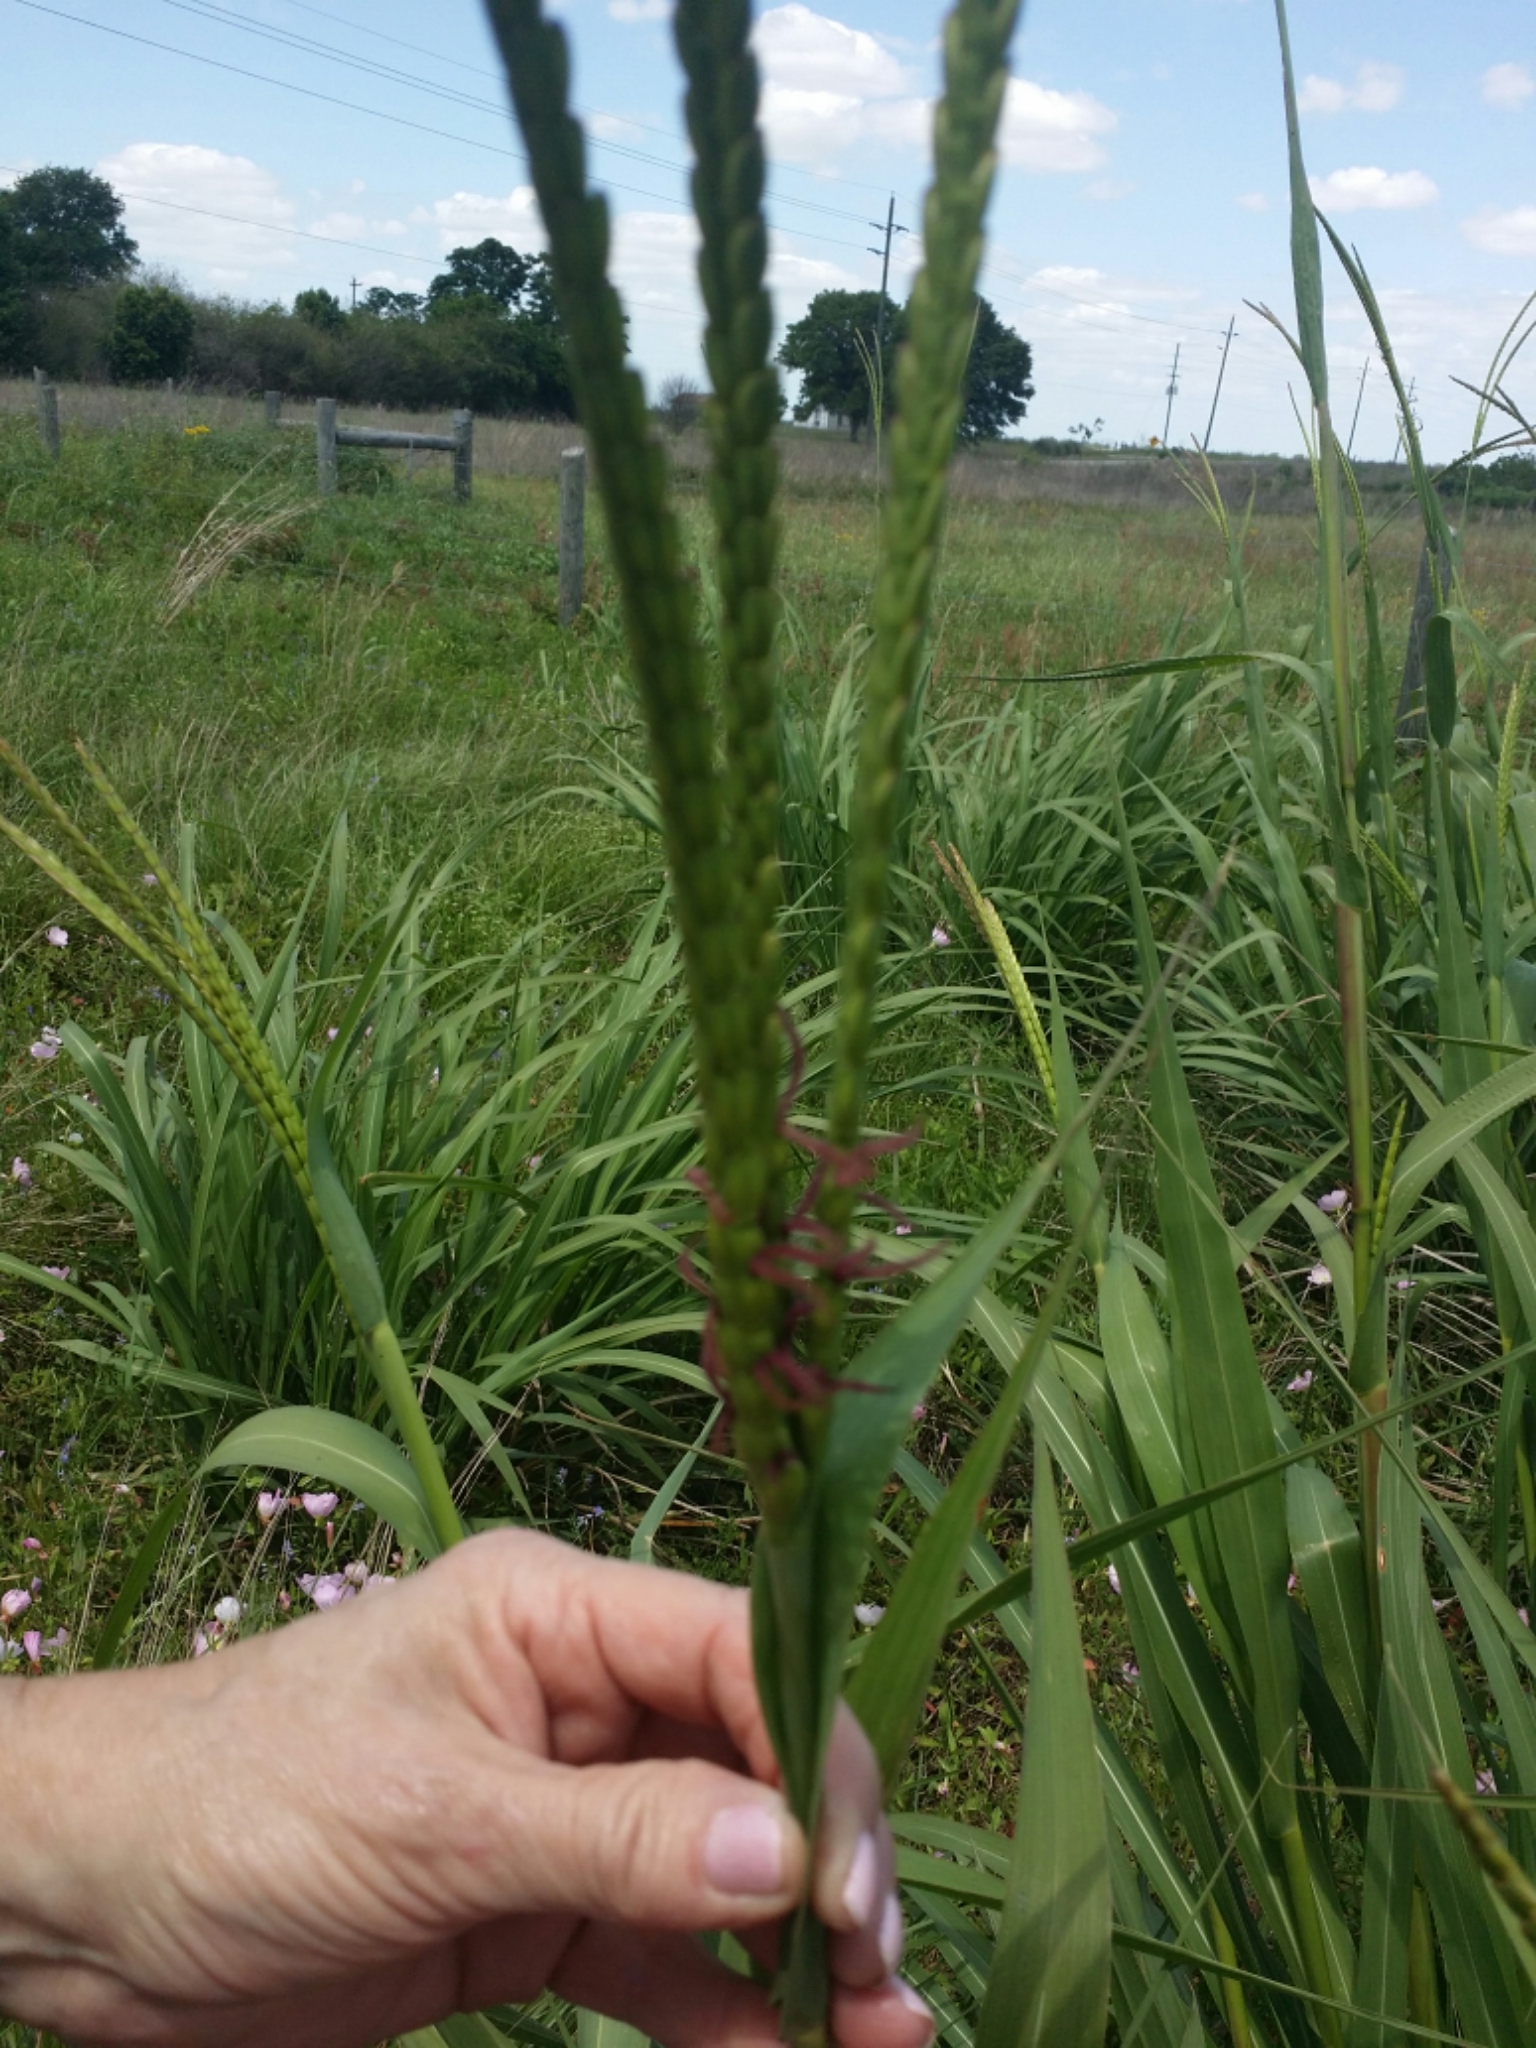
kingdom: Plantae
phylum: Tracheophyta
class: Liliopsida
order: Poales
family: Poaceae
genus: Tripsacum
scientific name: Tripsacum dactyloides
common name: Buffalo-grass
